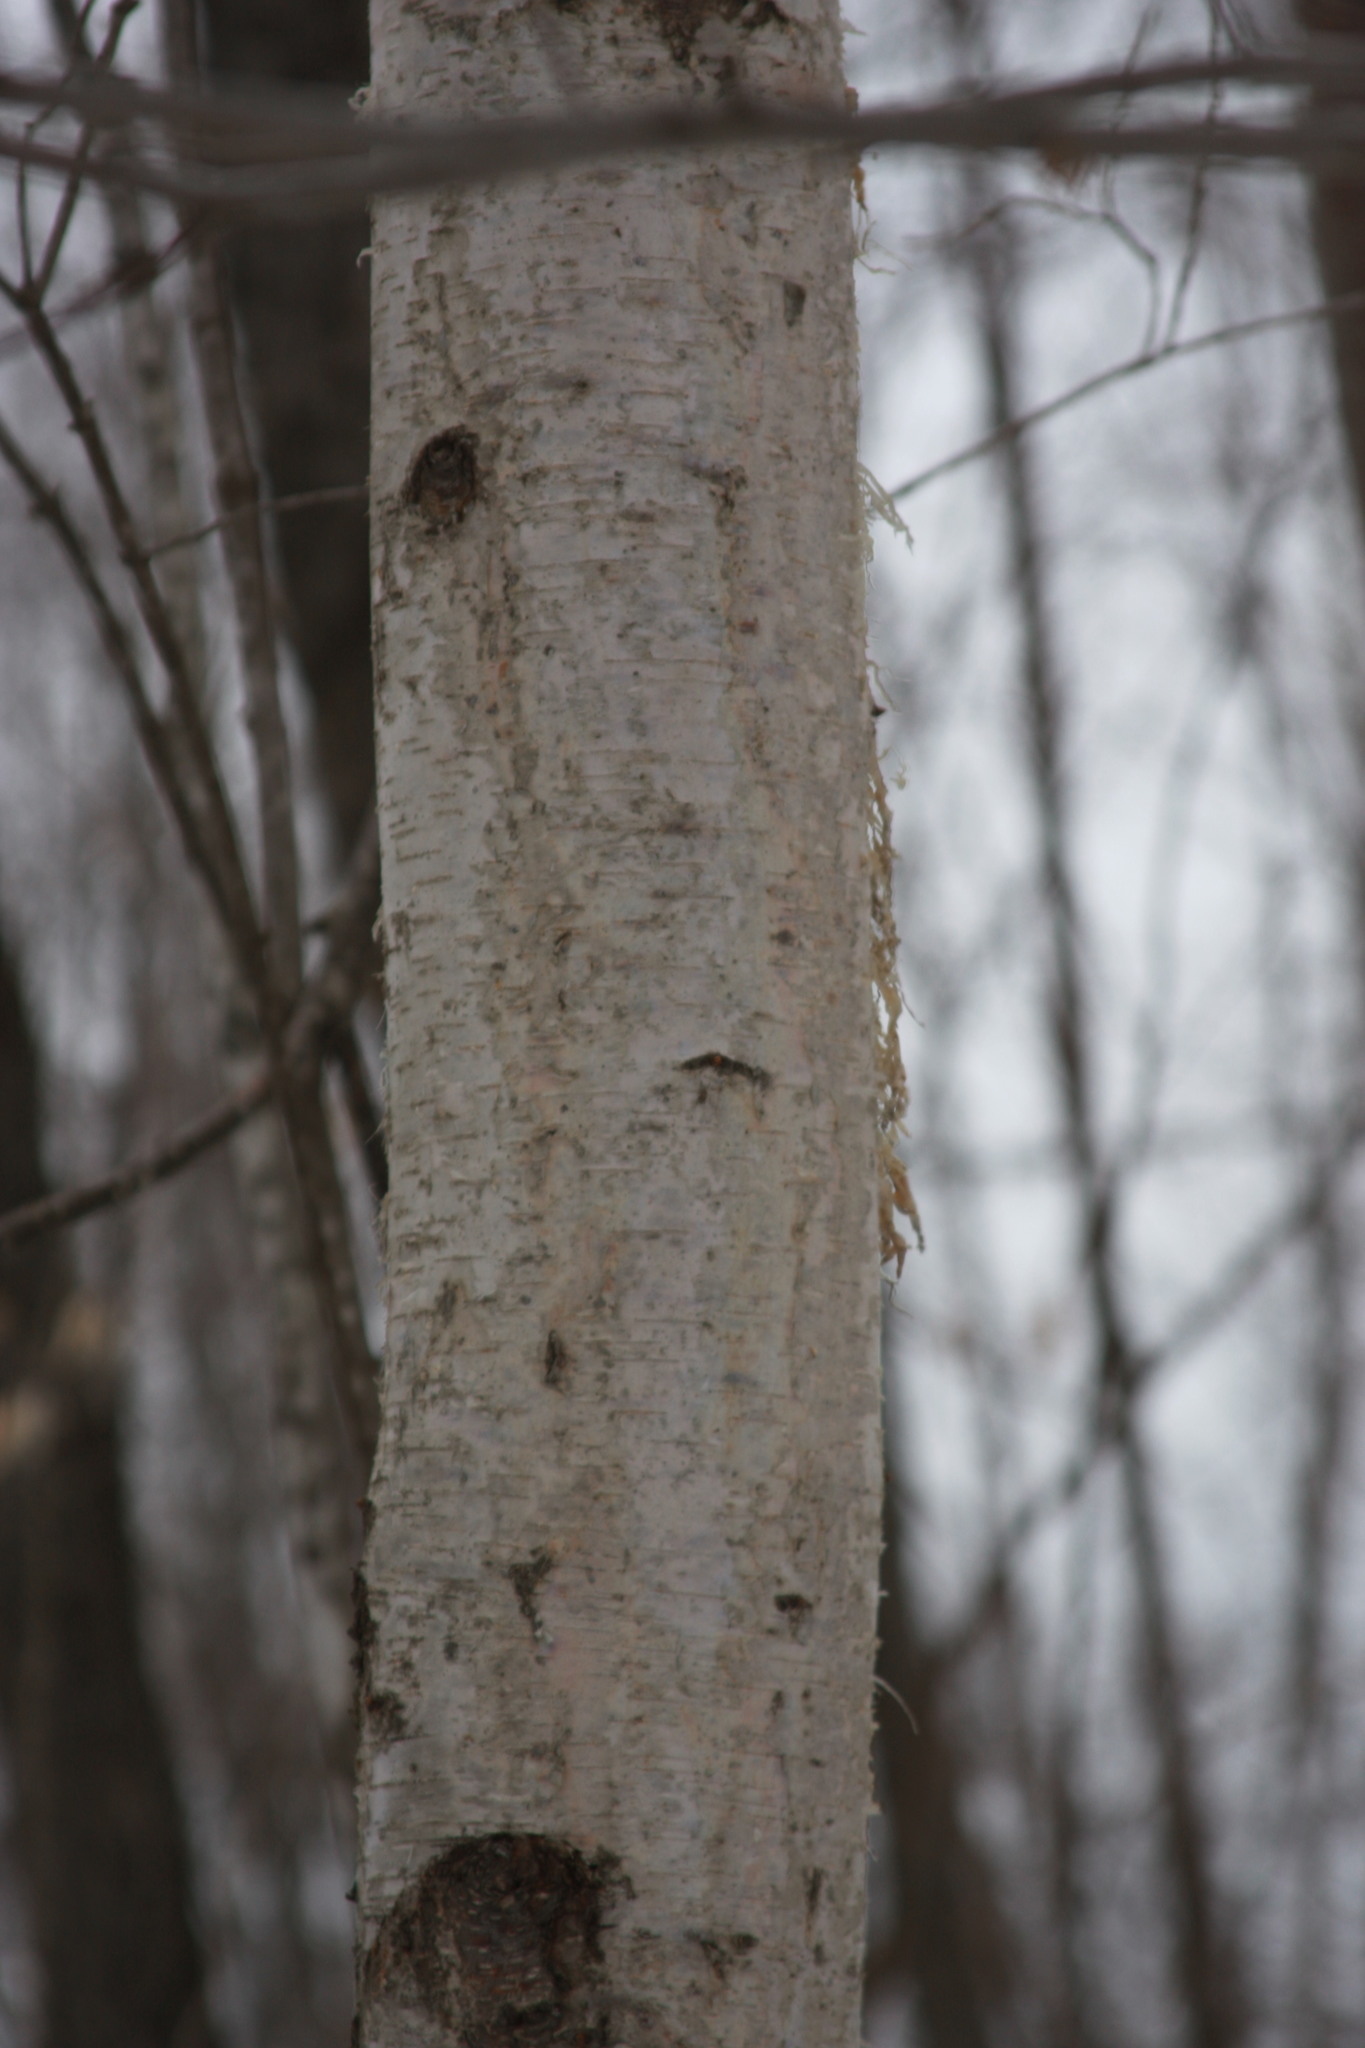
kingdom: Plantae
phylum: Tracheophyta
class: Magnoliopsida
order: Fagales
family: Betulaceae
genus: Betula
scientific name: Betula papyrifera
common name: Paper birch
